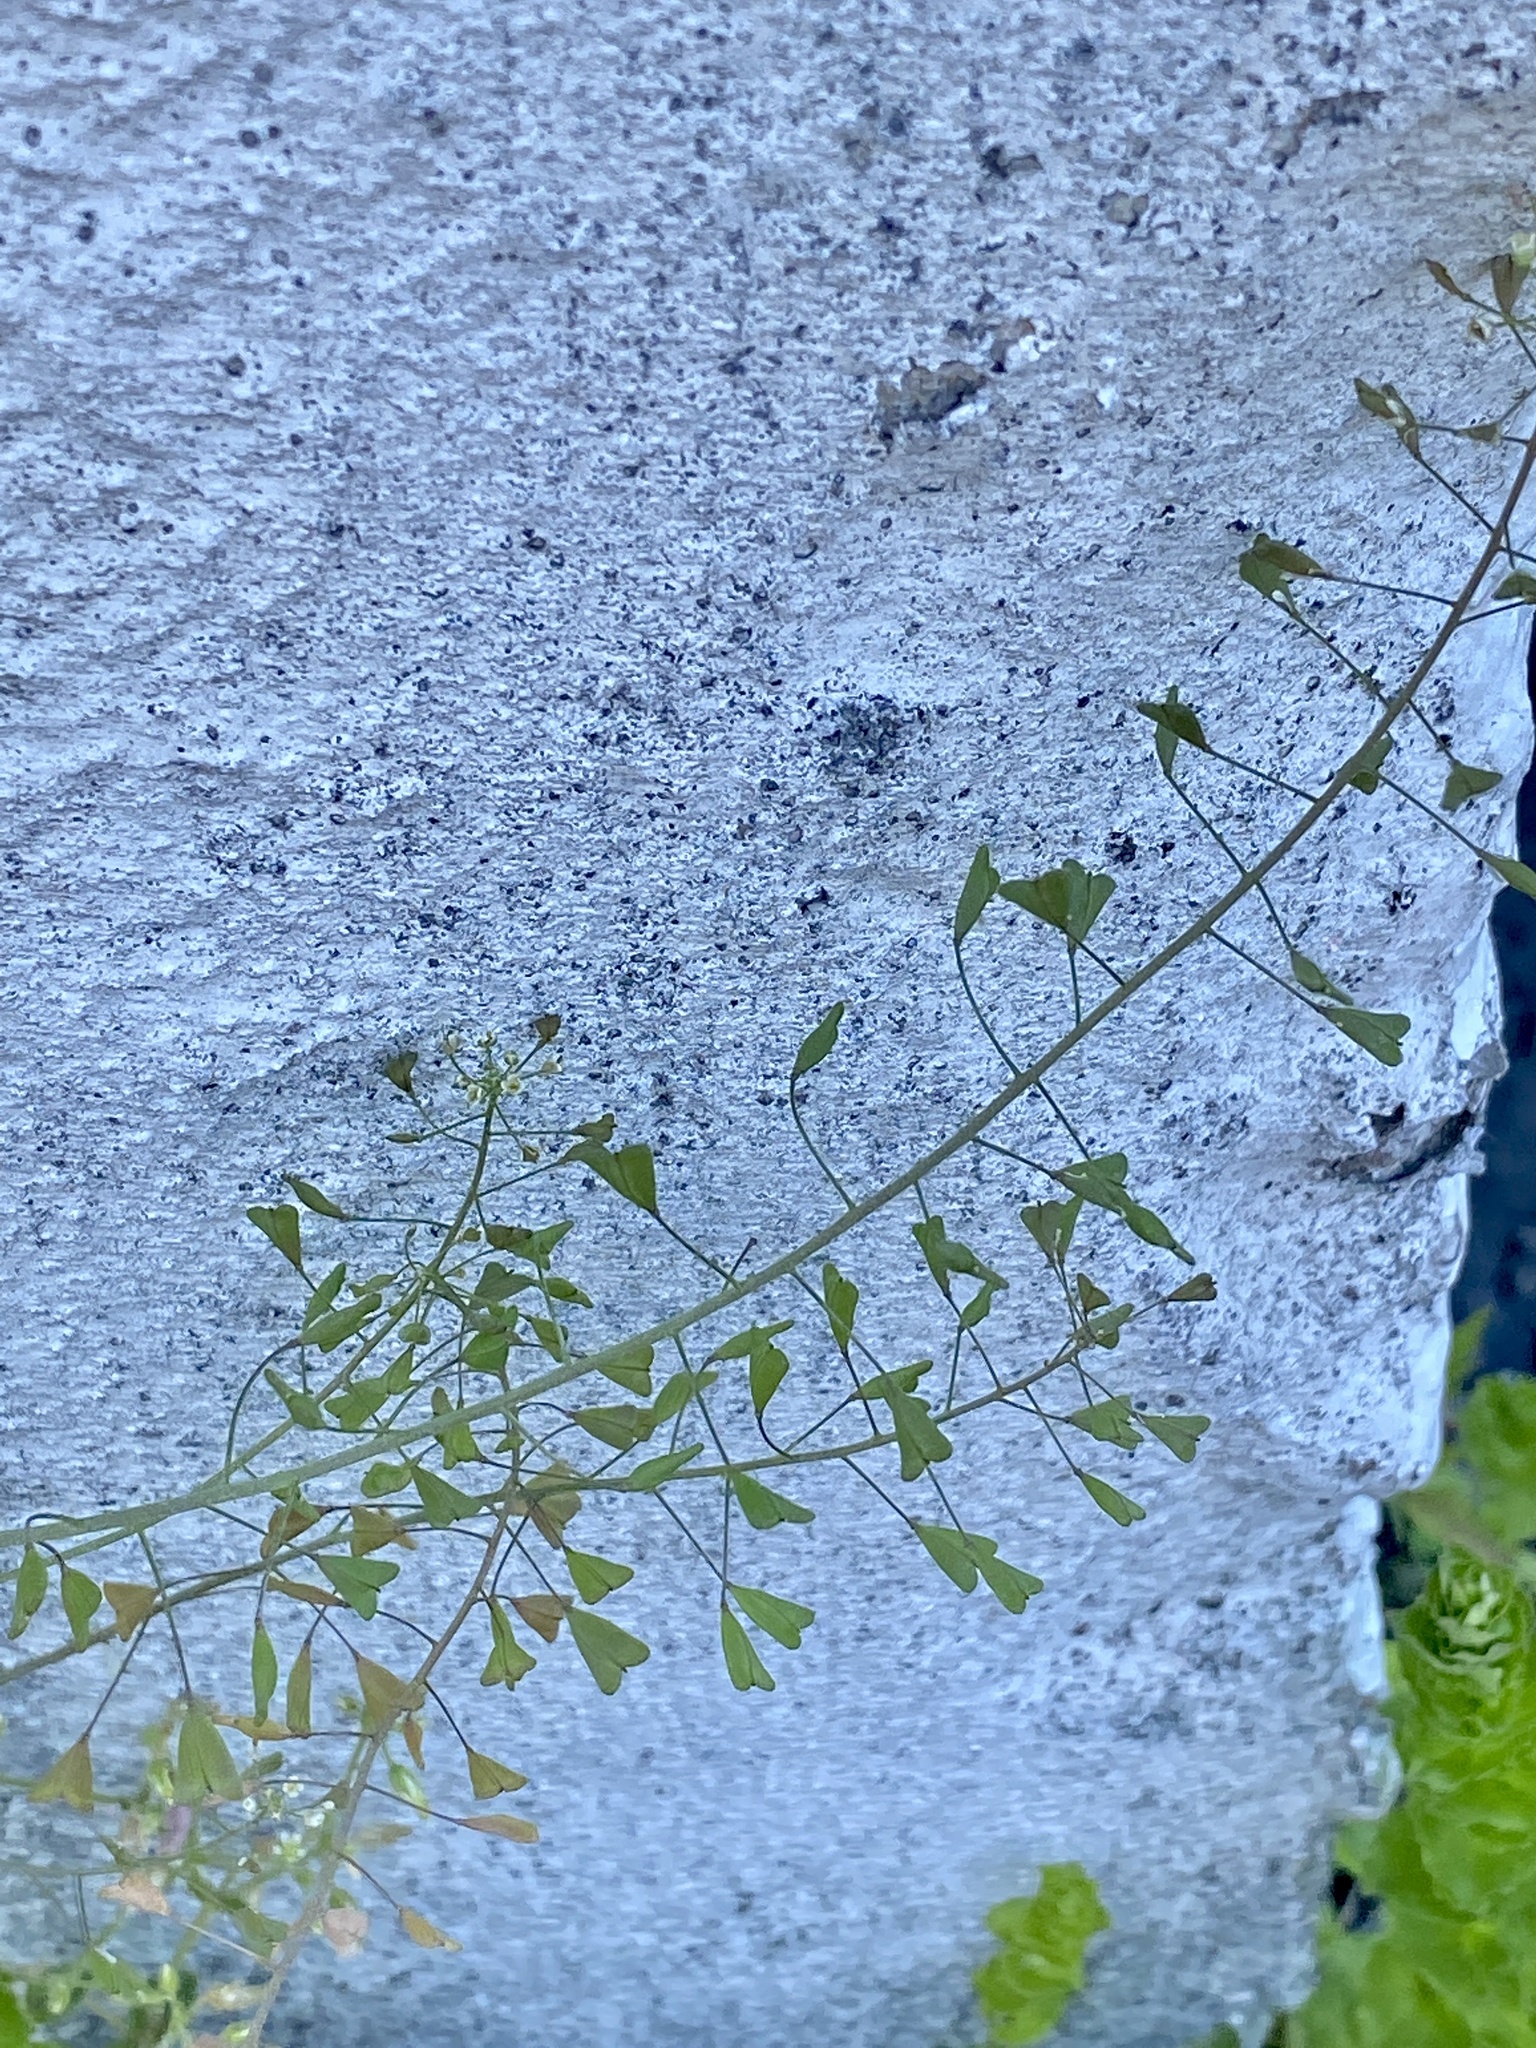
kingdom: Plantae
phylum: Tracheophyta
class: Magnoliopsida
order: Brassicales
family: Brassicaceae
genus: Capsella
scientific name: Capsella bursa-pastoris
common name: Shepherd's purse
